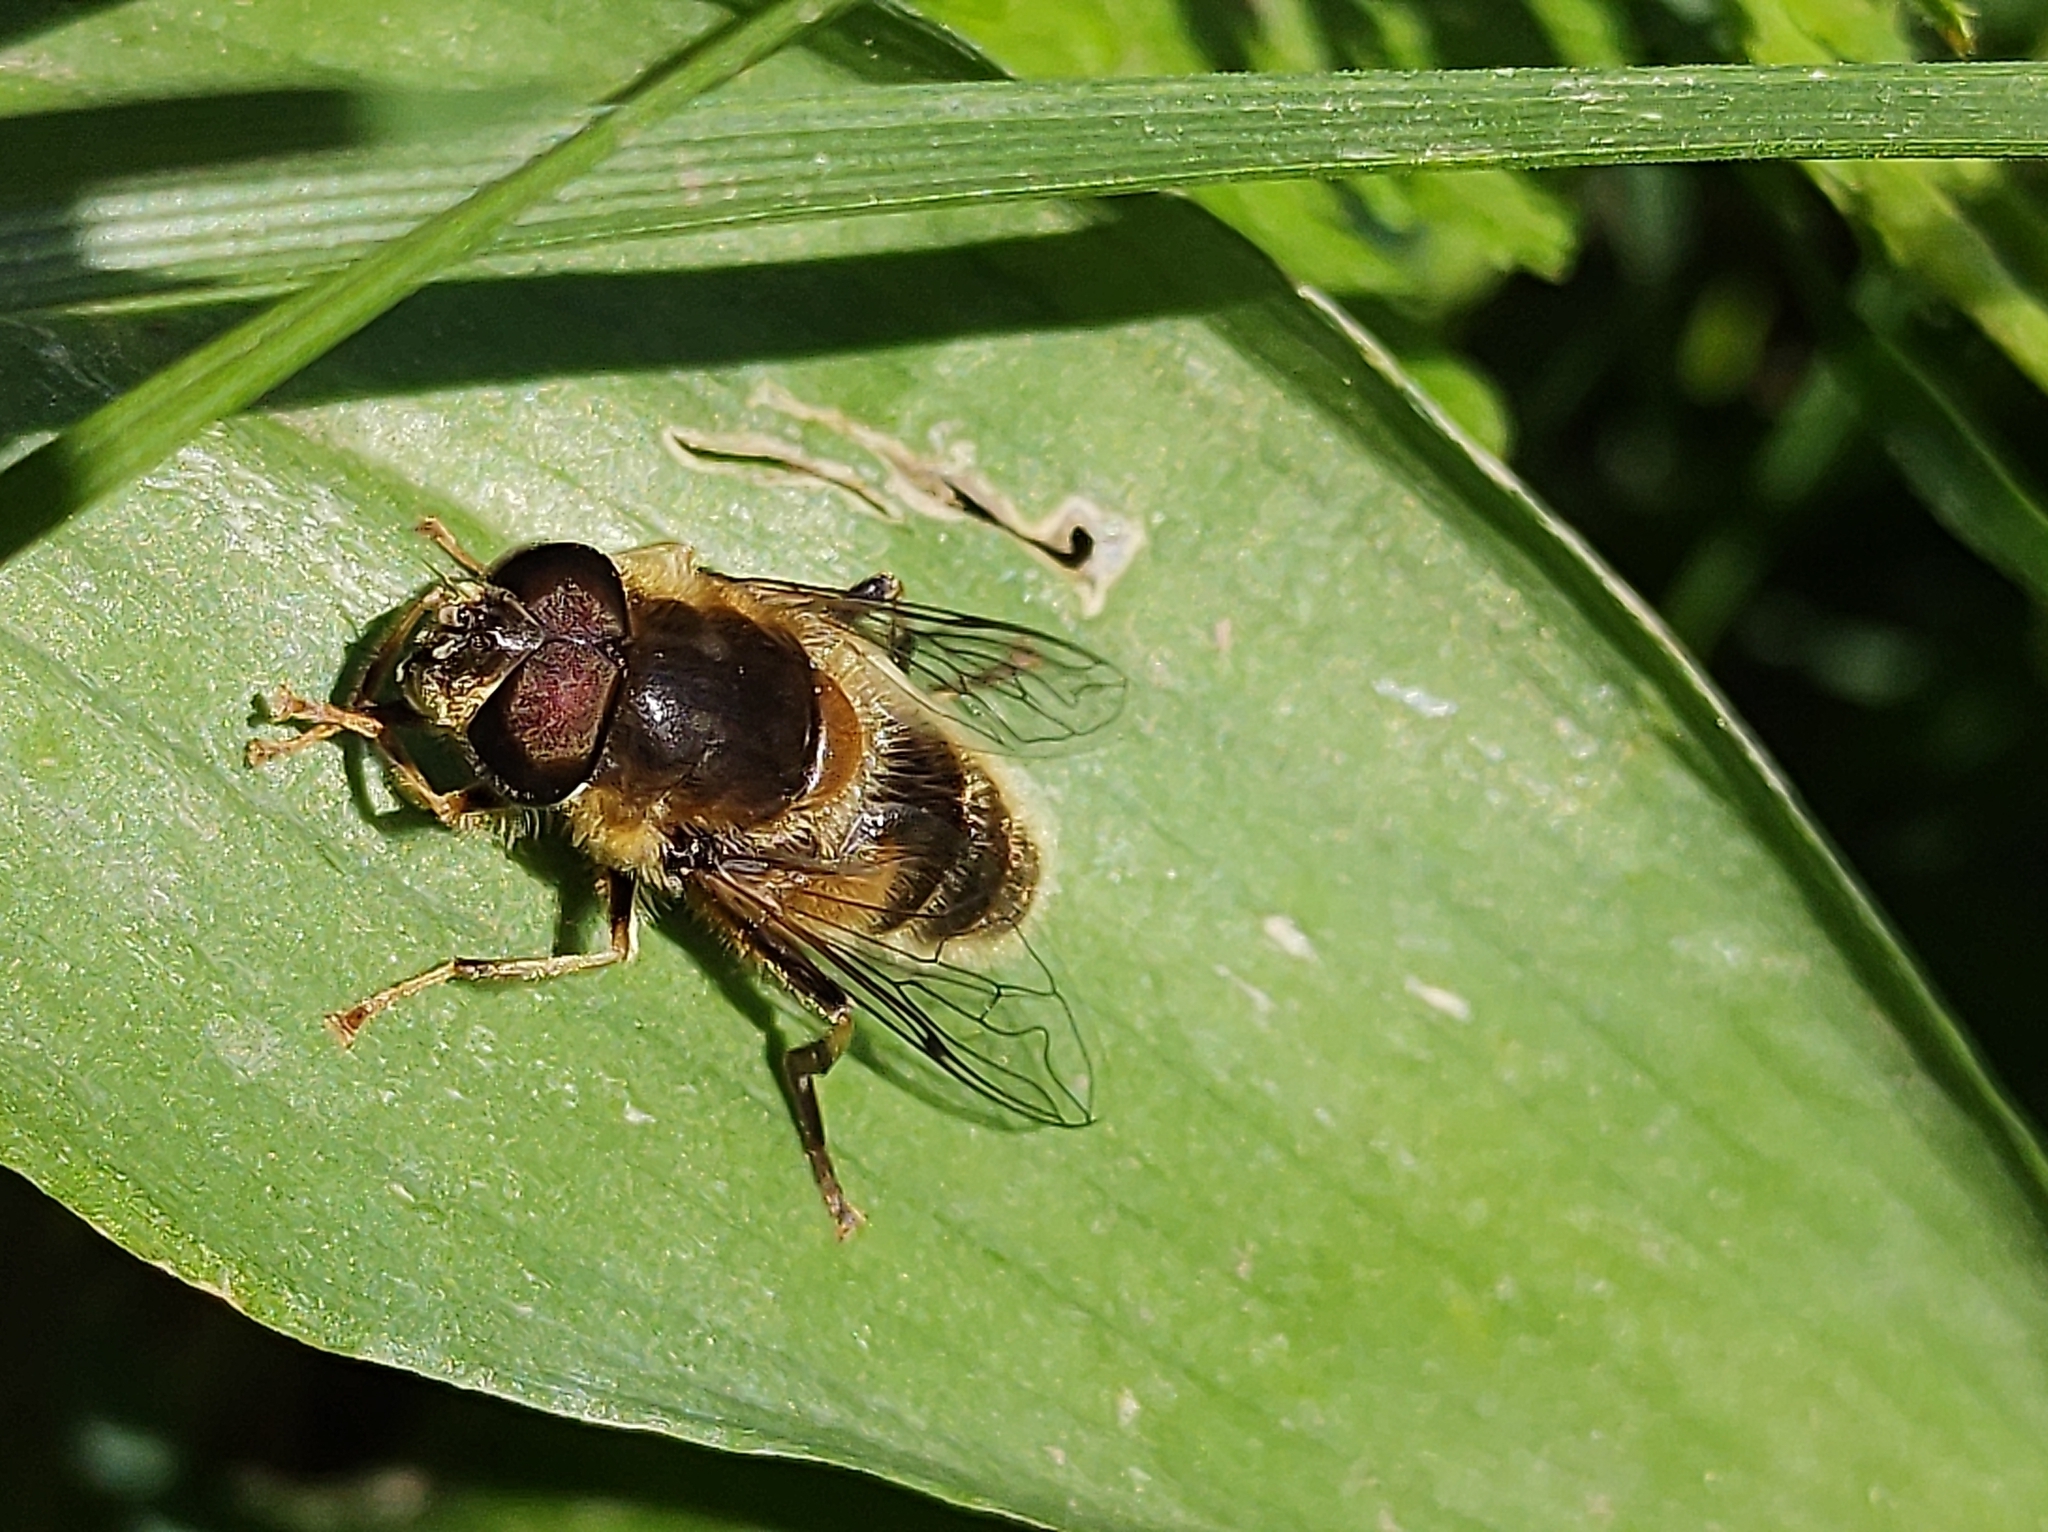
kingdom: Animalia
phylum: Arthropoda
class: Insecta
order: Diptera
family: Syrphidae
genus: Eristalis
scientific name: Eristalis pertinax
